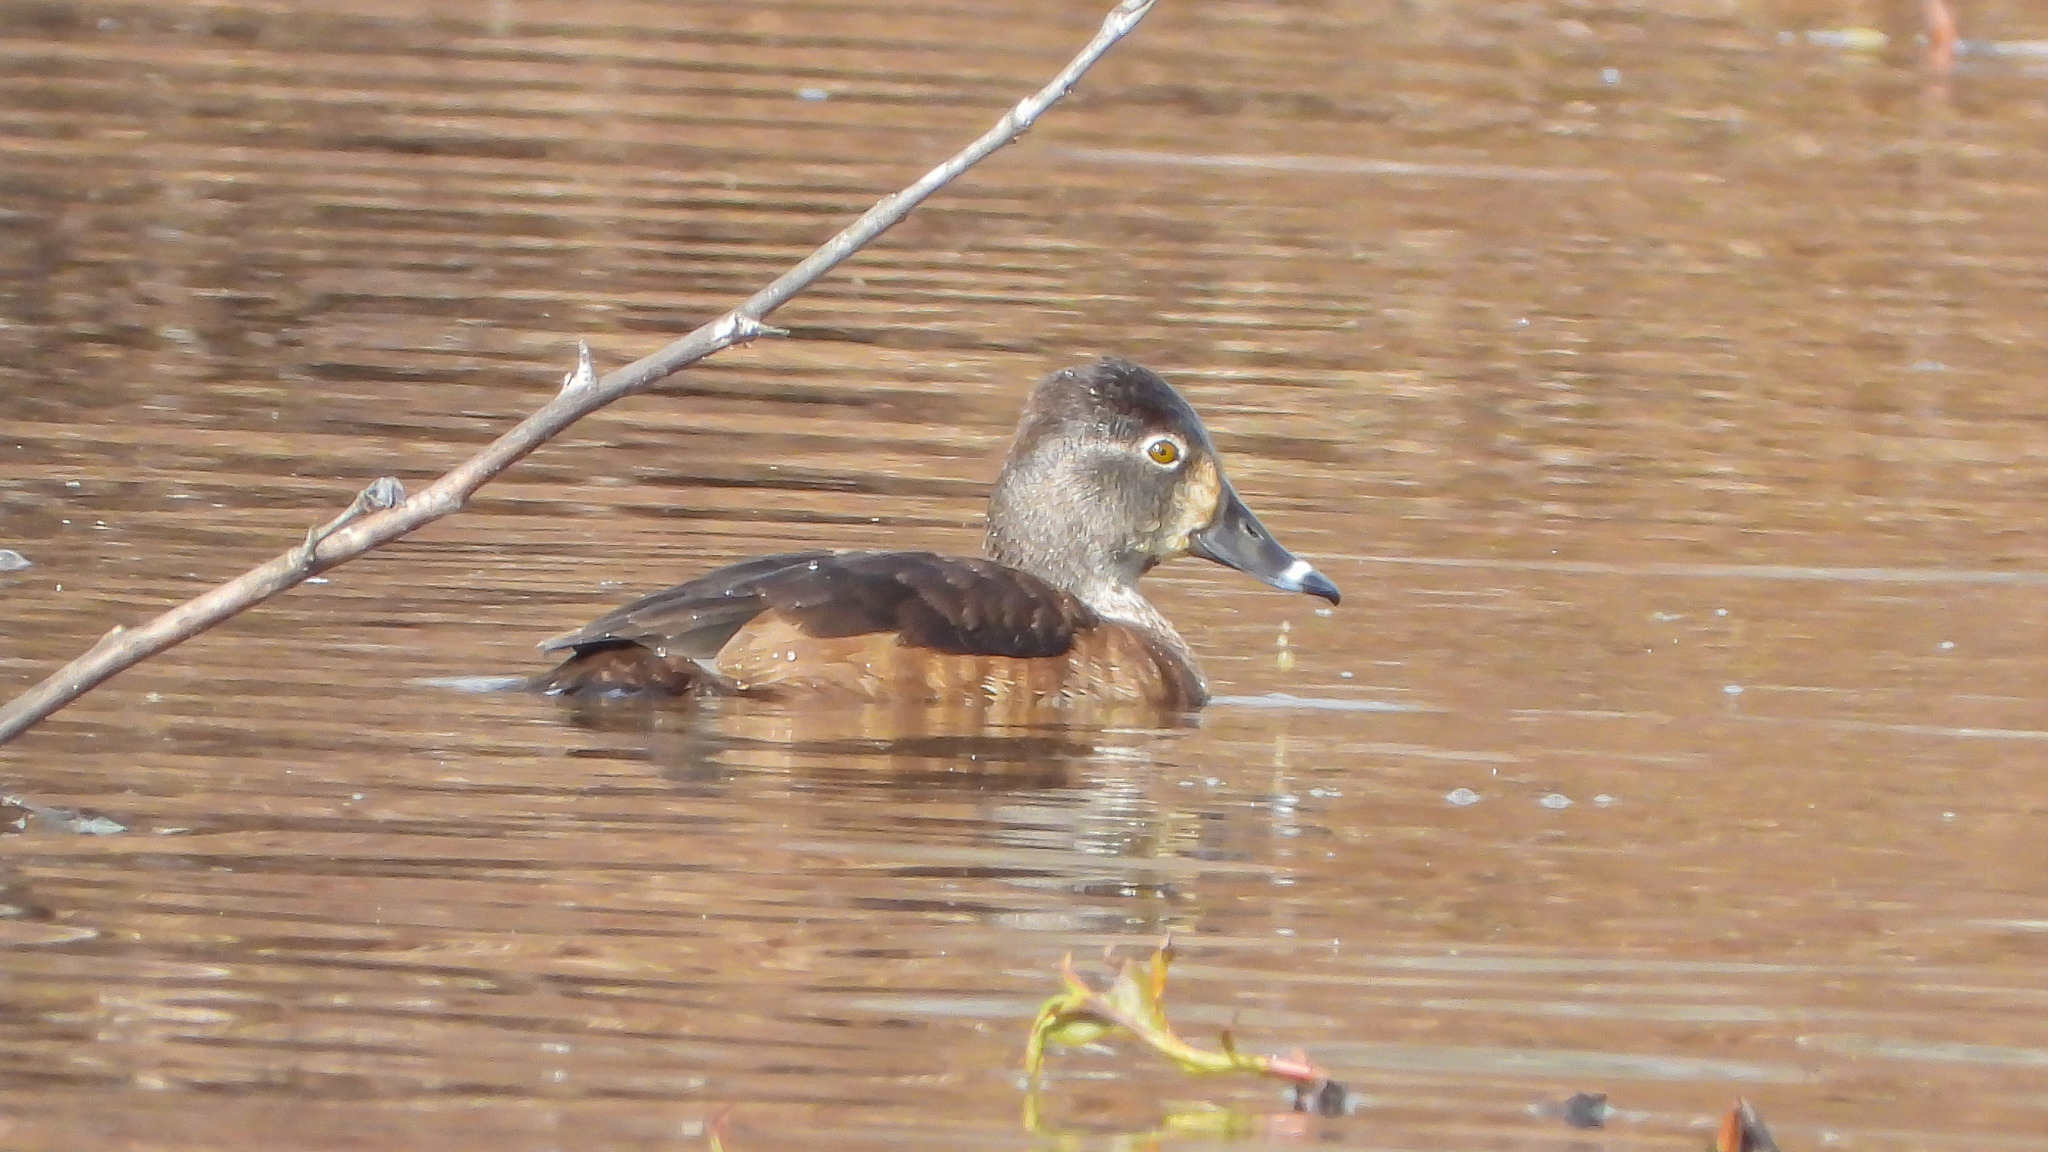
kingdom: Animalia
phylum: Chordata
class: Aves
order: Anseriformes
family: Anatidae
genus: Aythya
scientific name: Aythya collaris
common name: Ring-necked duck
